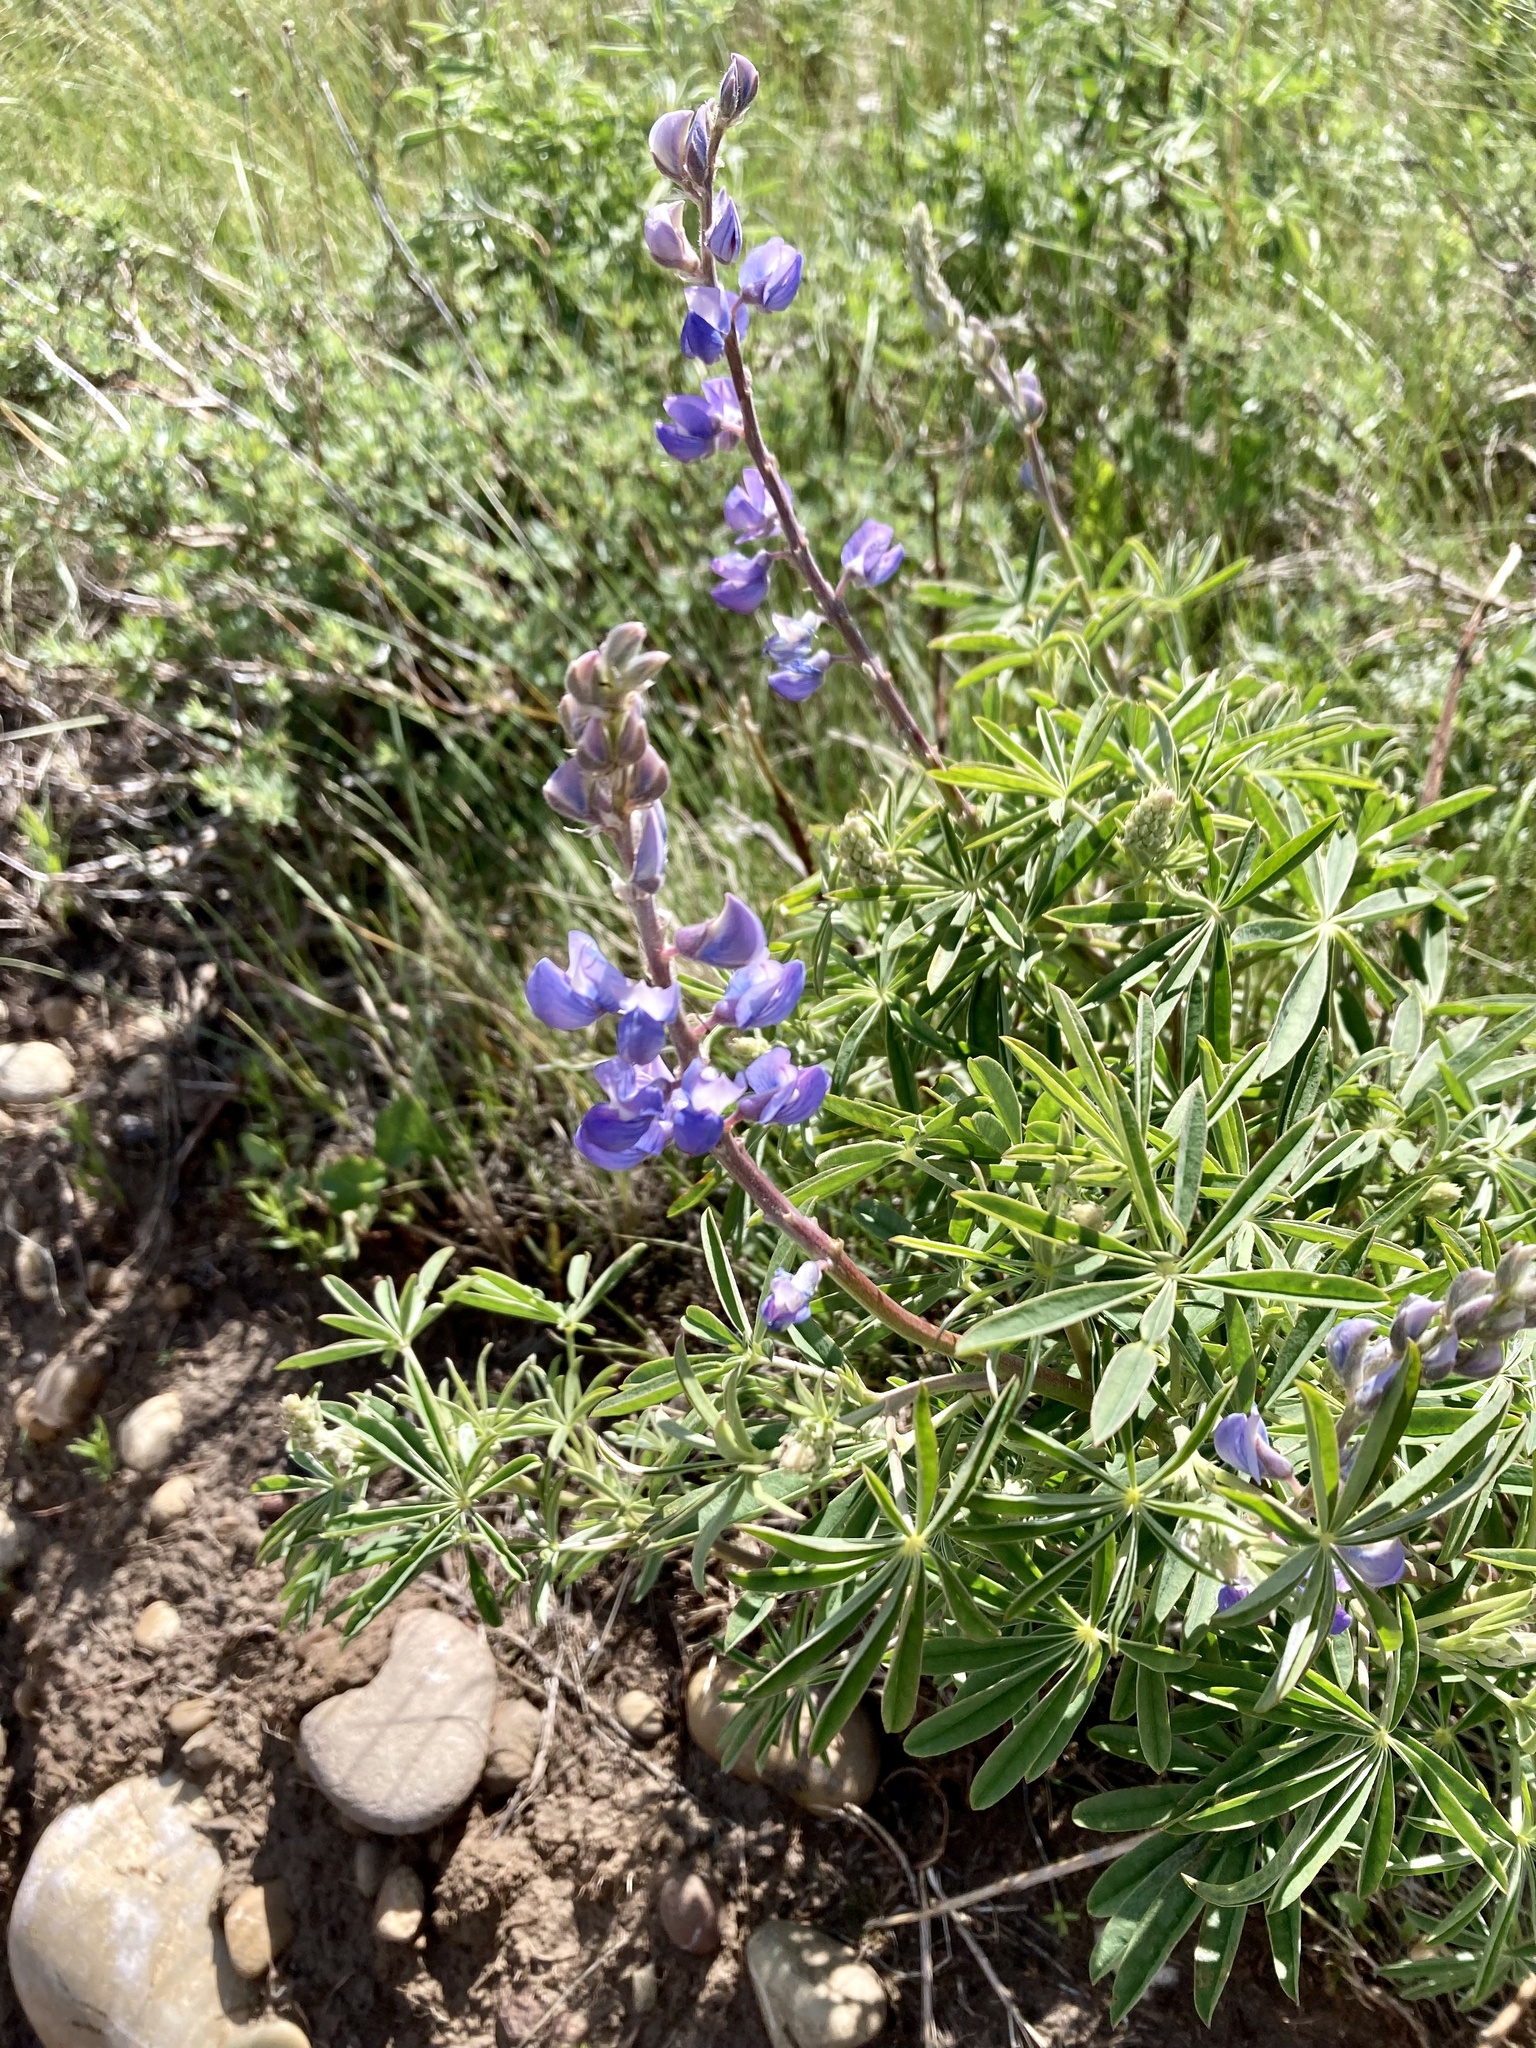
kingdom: Plantae
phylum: Tracheophyta
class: Magnoliopsida
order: Fabales
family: Fabaceae
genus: Lupinus
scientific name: Lupinus argenteus
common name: Silvery lupine
